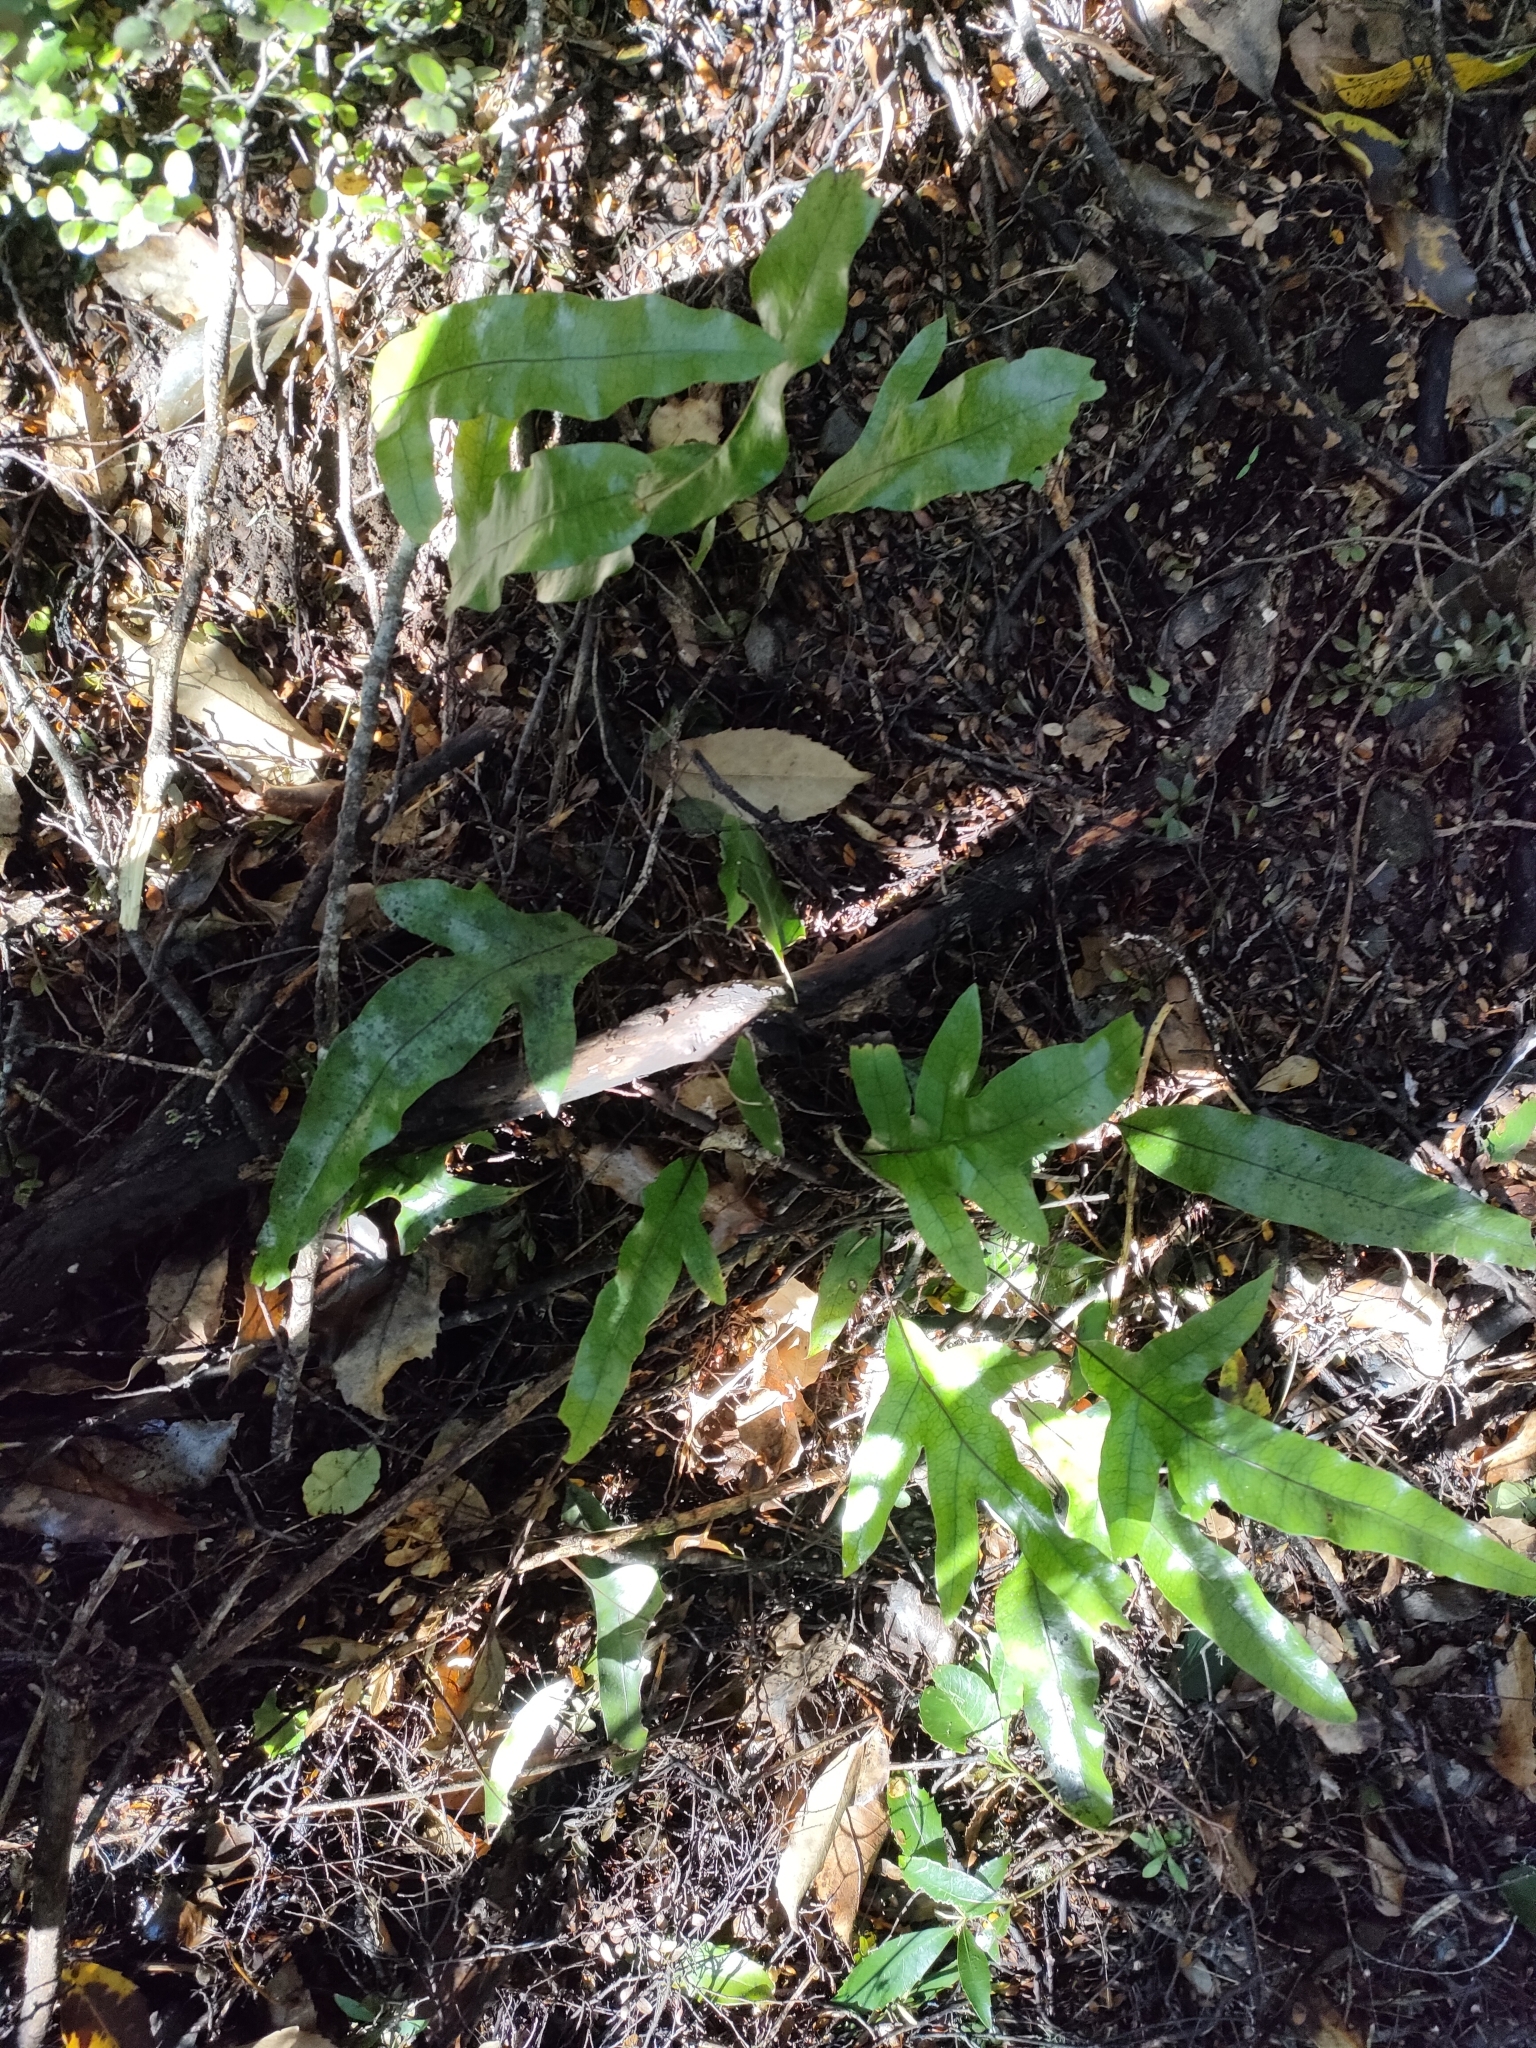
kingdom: Plantae
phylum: Tracheophyta
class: Polypodiopsida
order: Polypodiales
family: Polypodiaceae
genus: Lecanopteris
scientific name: Lecanopteris pustulata
